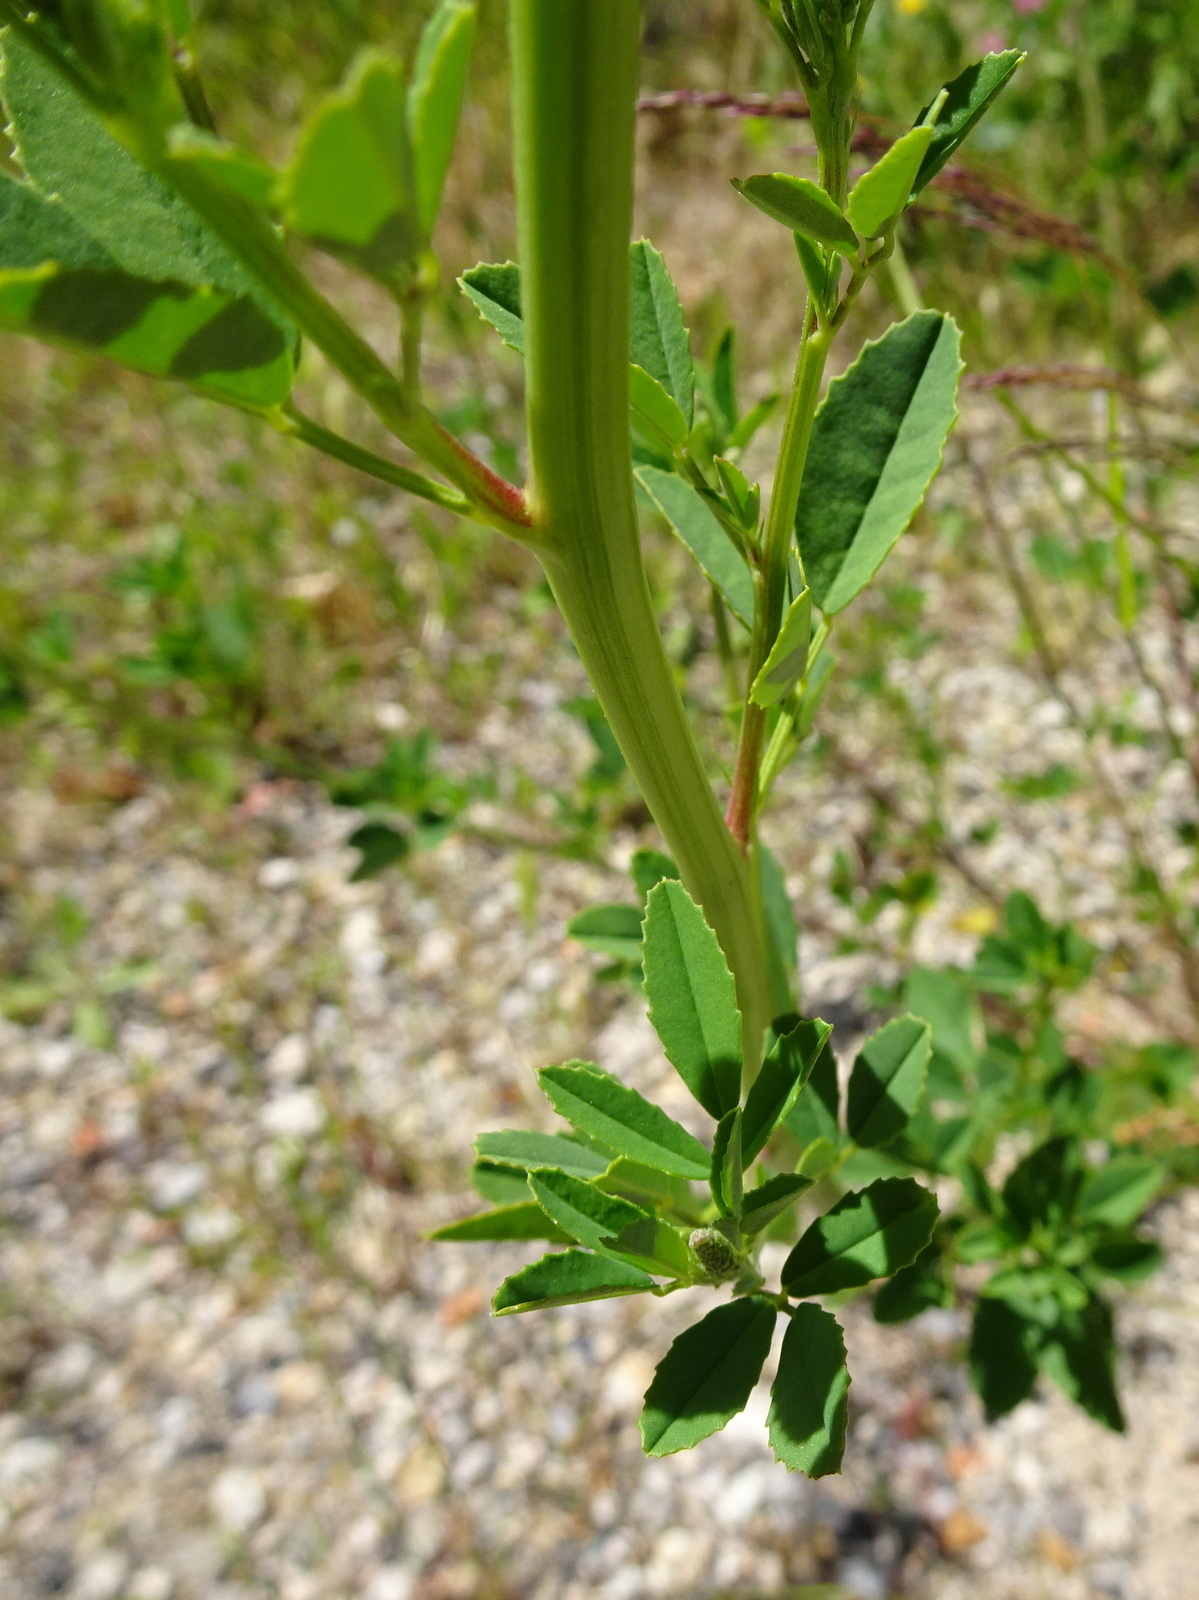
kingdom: Plantae
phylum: Tracheophyta
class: Magnoliopsida
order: Fabales
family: Fabaceae
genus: Melilotus
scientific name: Melilotus albus
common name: White melilot
